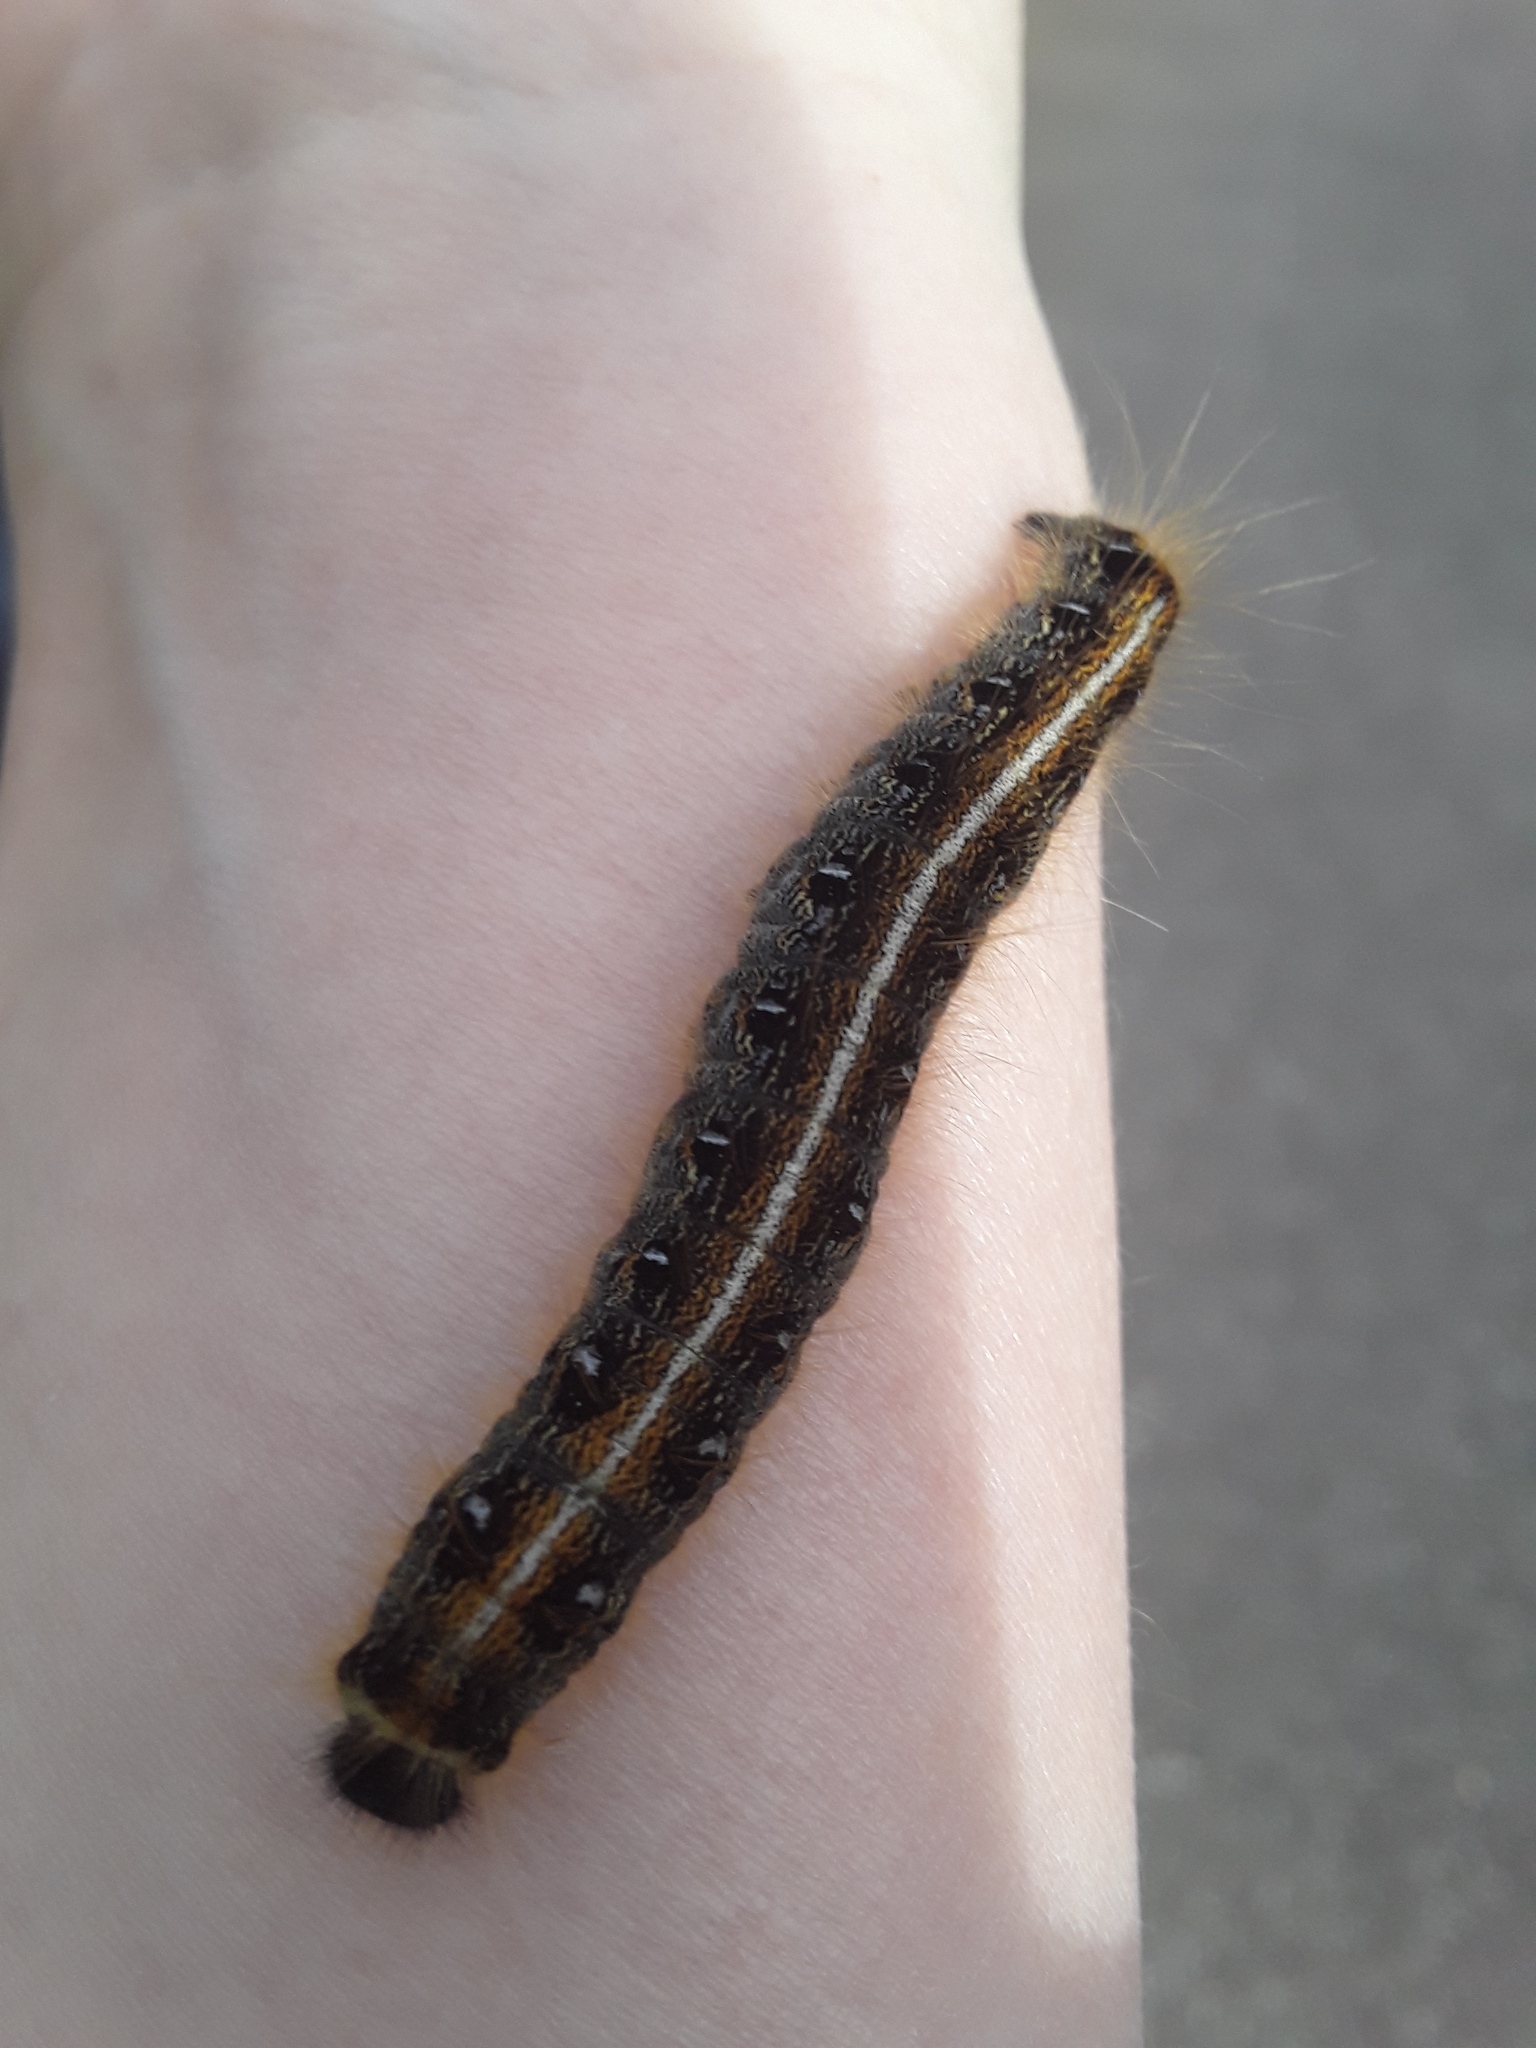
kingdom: Animalia
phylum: Arthropoda
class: Insecta
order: Lepidoptera
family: Lasiocampidae
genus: Malacosoma
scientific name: Malacosoma americana
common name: Eastern tent caterpillar moth
